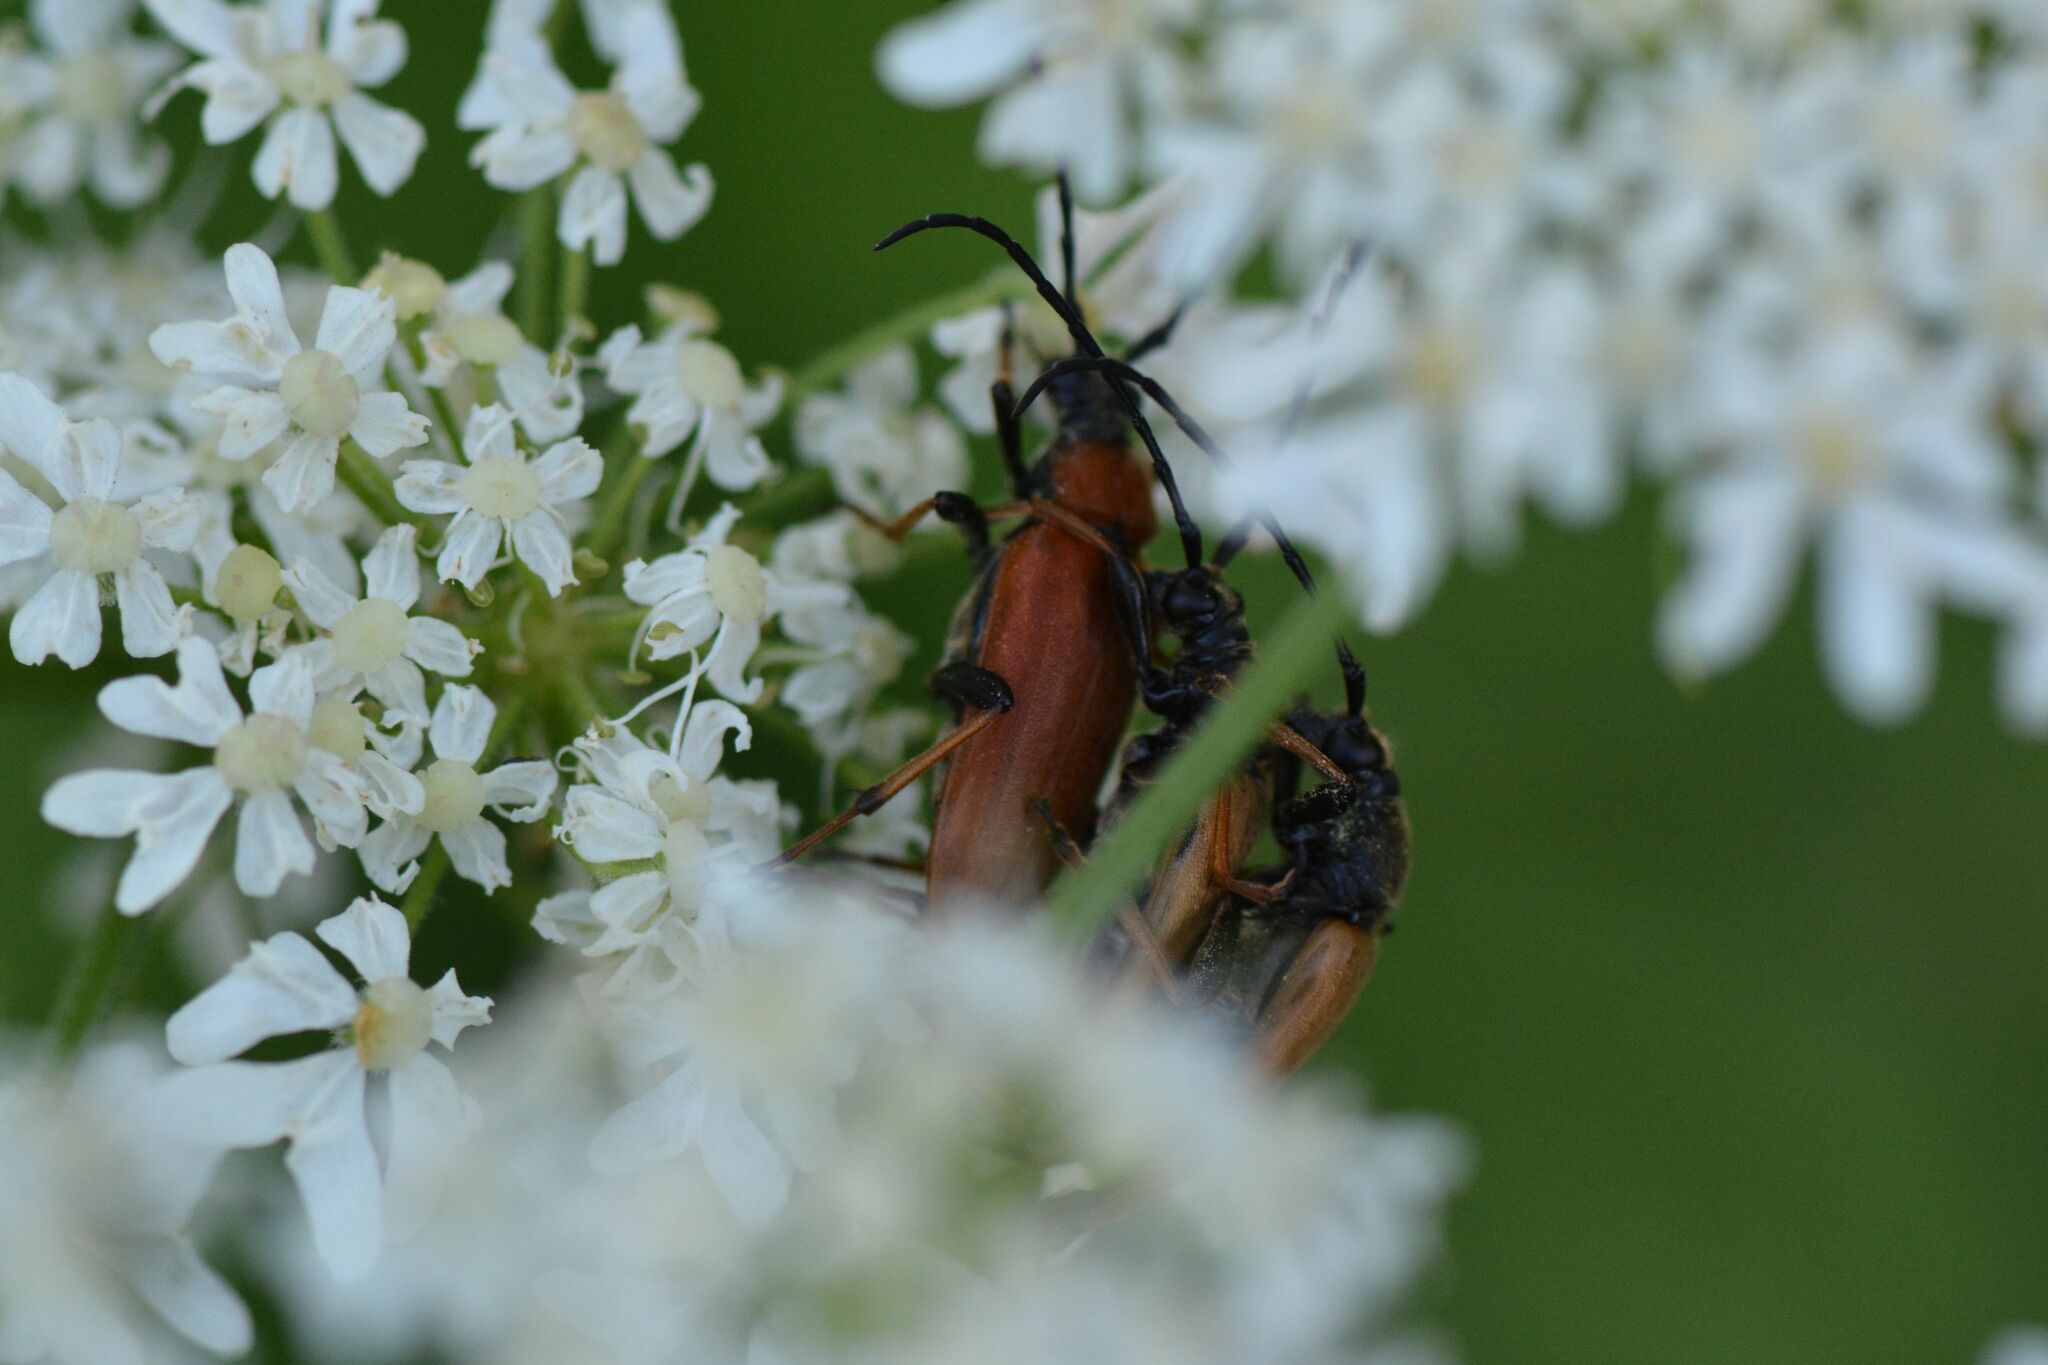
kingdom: Animalia
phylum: Arthropoda
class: Insecta
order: Coleoptera
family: Cerambycidae
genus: Stictoleptura
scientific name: Stictoleptura rubra
